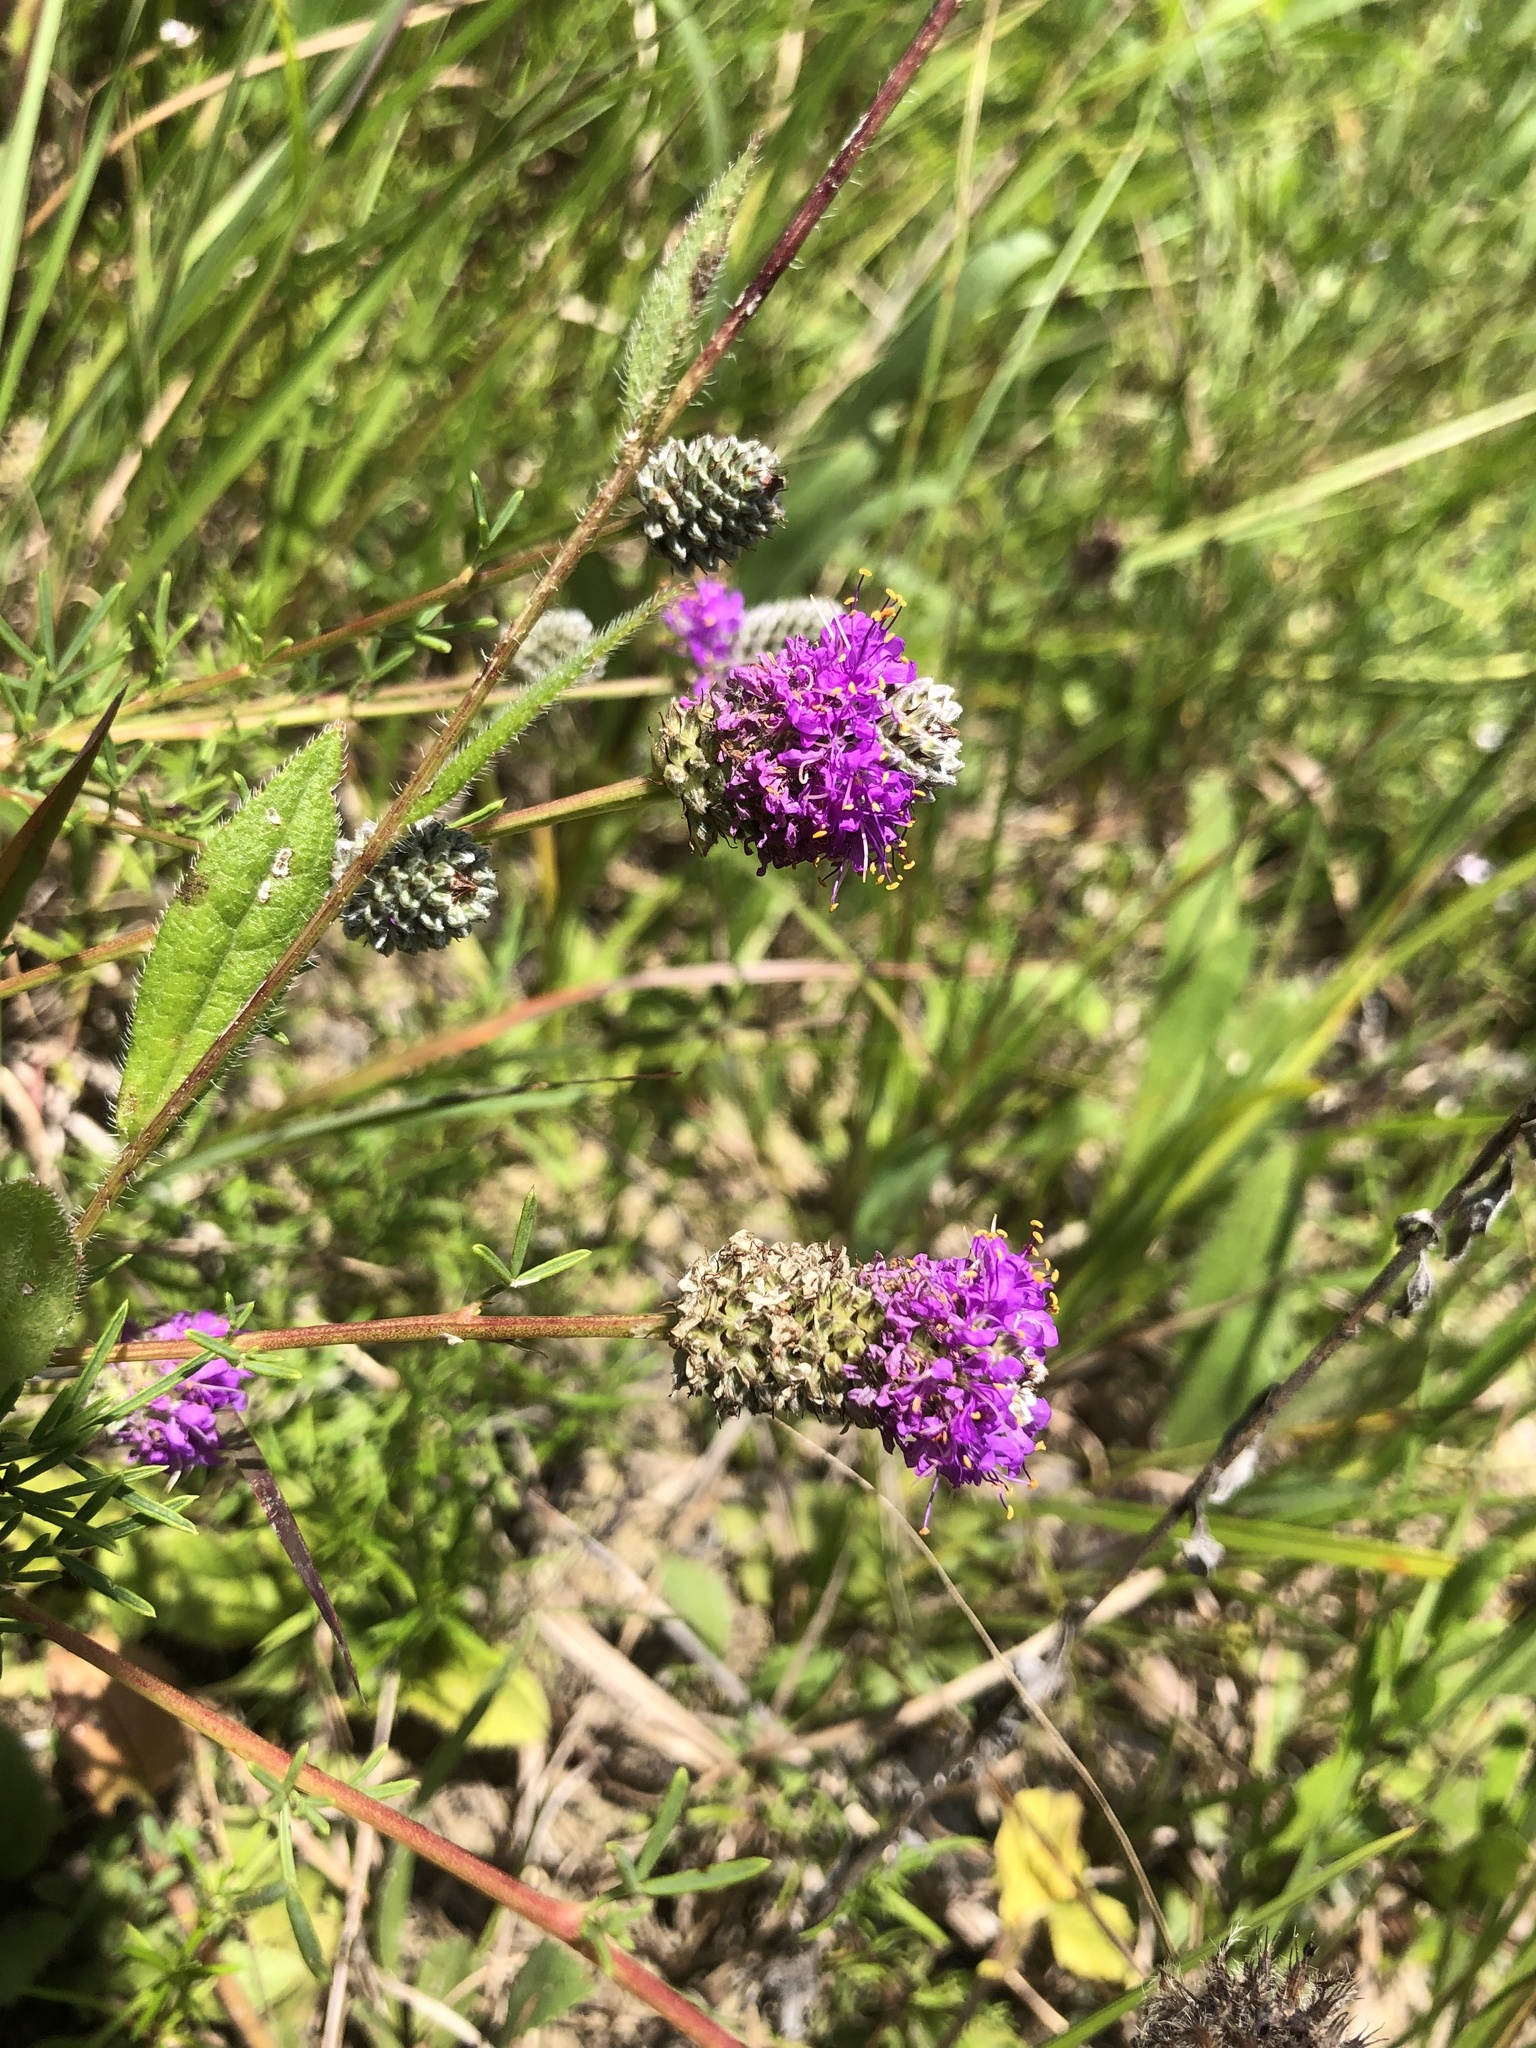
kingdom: Plantae
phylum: Tracheophyta
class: Magnoliopsida
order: Fabales
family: Fabaceae
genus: Dalea
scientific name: Dalea purpurea
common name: Purple prairie-clover
